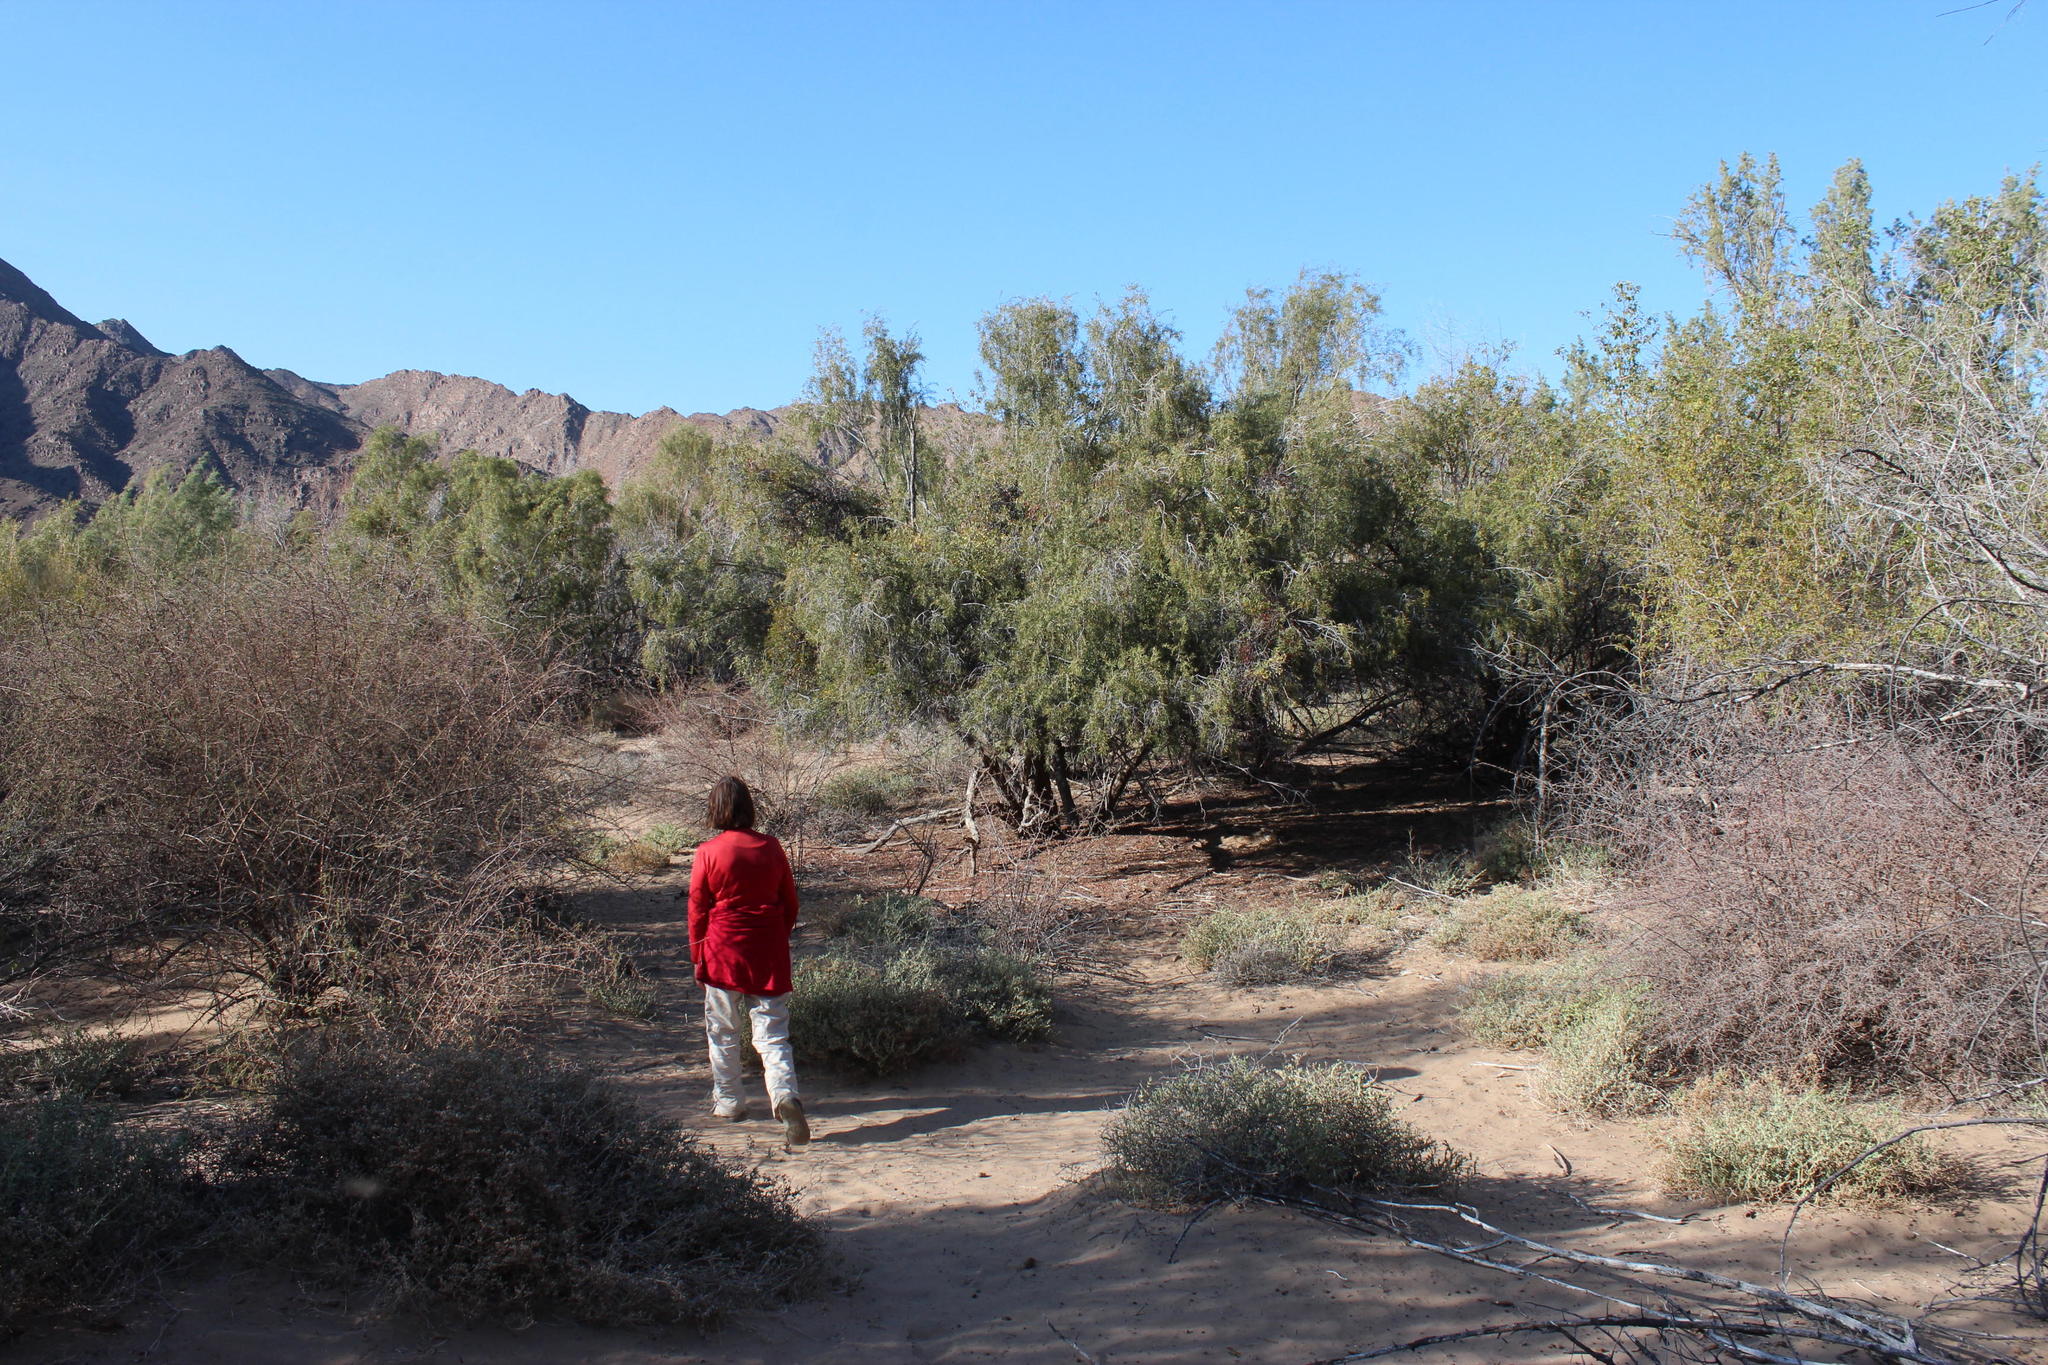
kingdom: Plantae
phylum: Tracheophyta
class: Magnoliopsida
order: Ericales
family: Ebenaceae
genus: Euclea
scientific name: Euclea pseudebenus
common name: Black ebony
